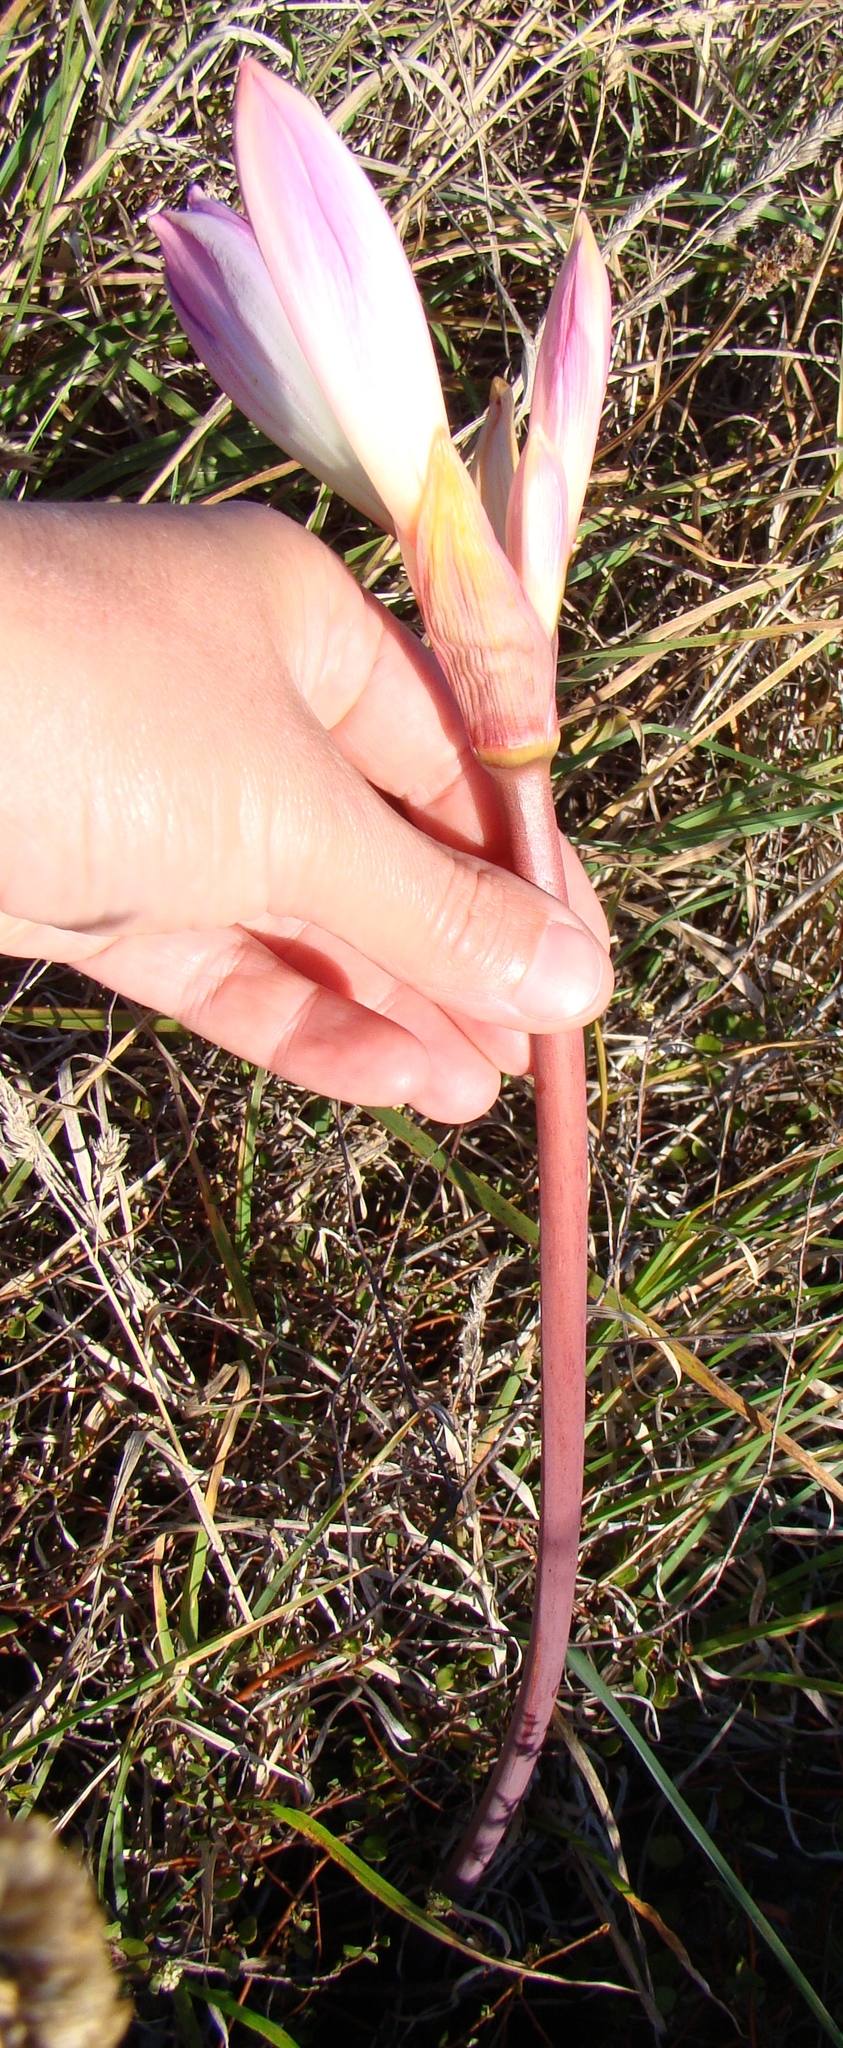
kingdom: Plantae
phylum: Tracheophyta
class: Liliopsida
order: Asparagales
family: Amaryllidaceae
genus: Amaryllis
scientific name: Amaryllis belladonna
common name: Jersey lily
